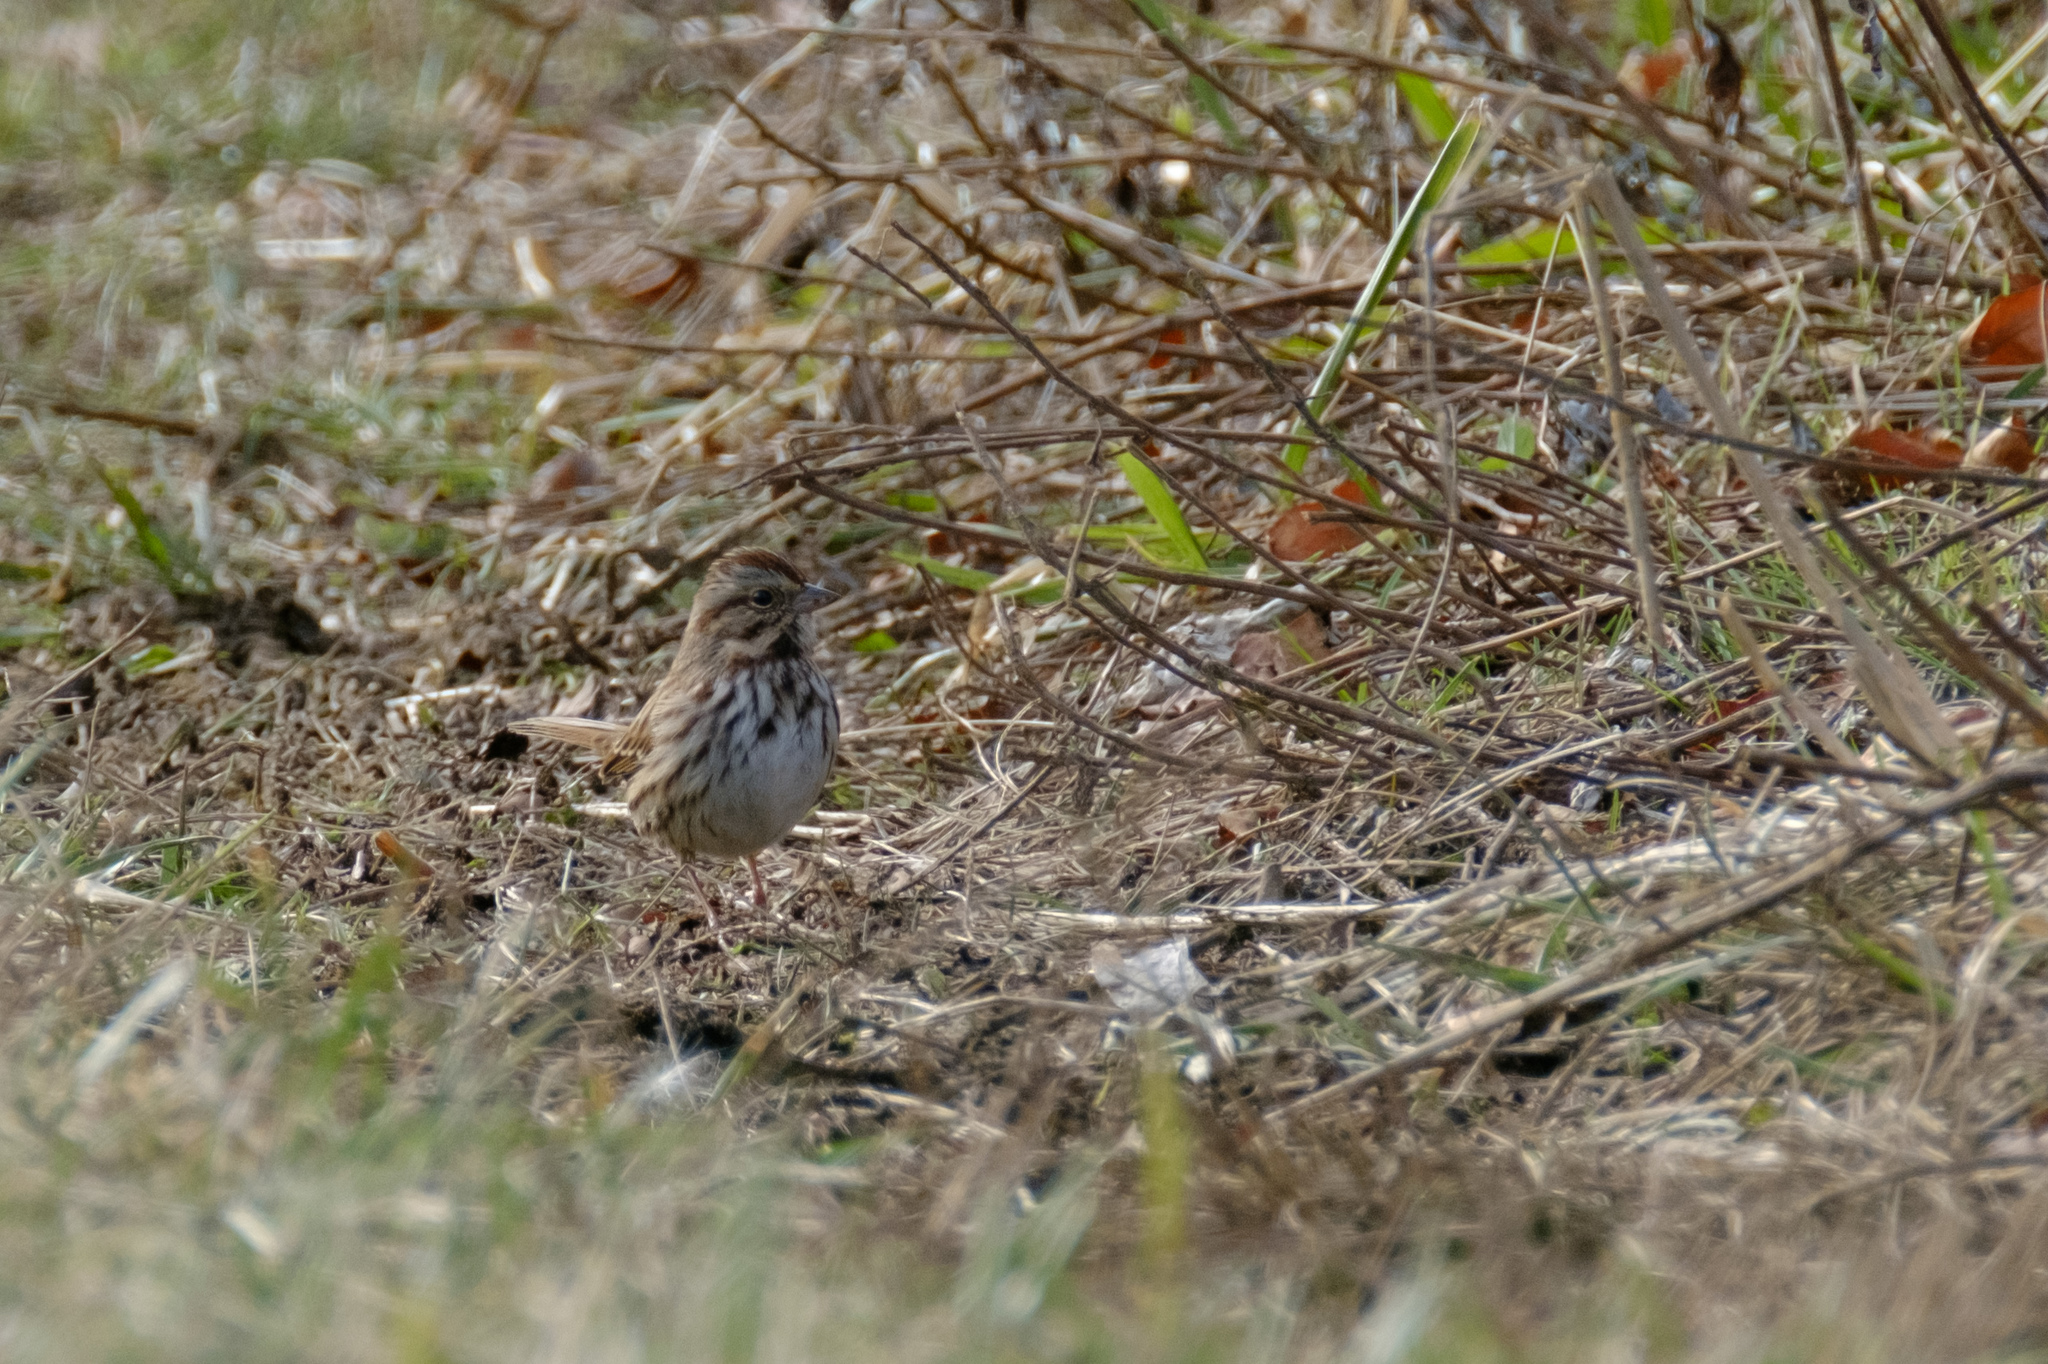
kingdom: Animalia
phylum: Chordata
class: Aves
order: Passeriformes
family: Passerellidae
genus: Melospiza
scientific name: Melospiza melodia
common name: Song sparrow
